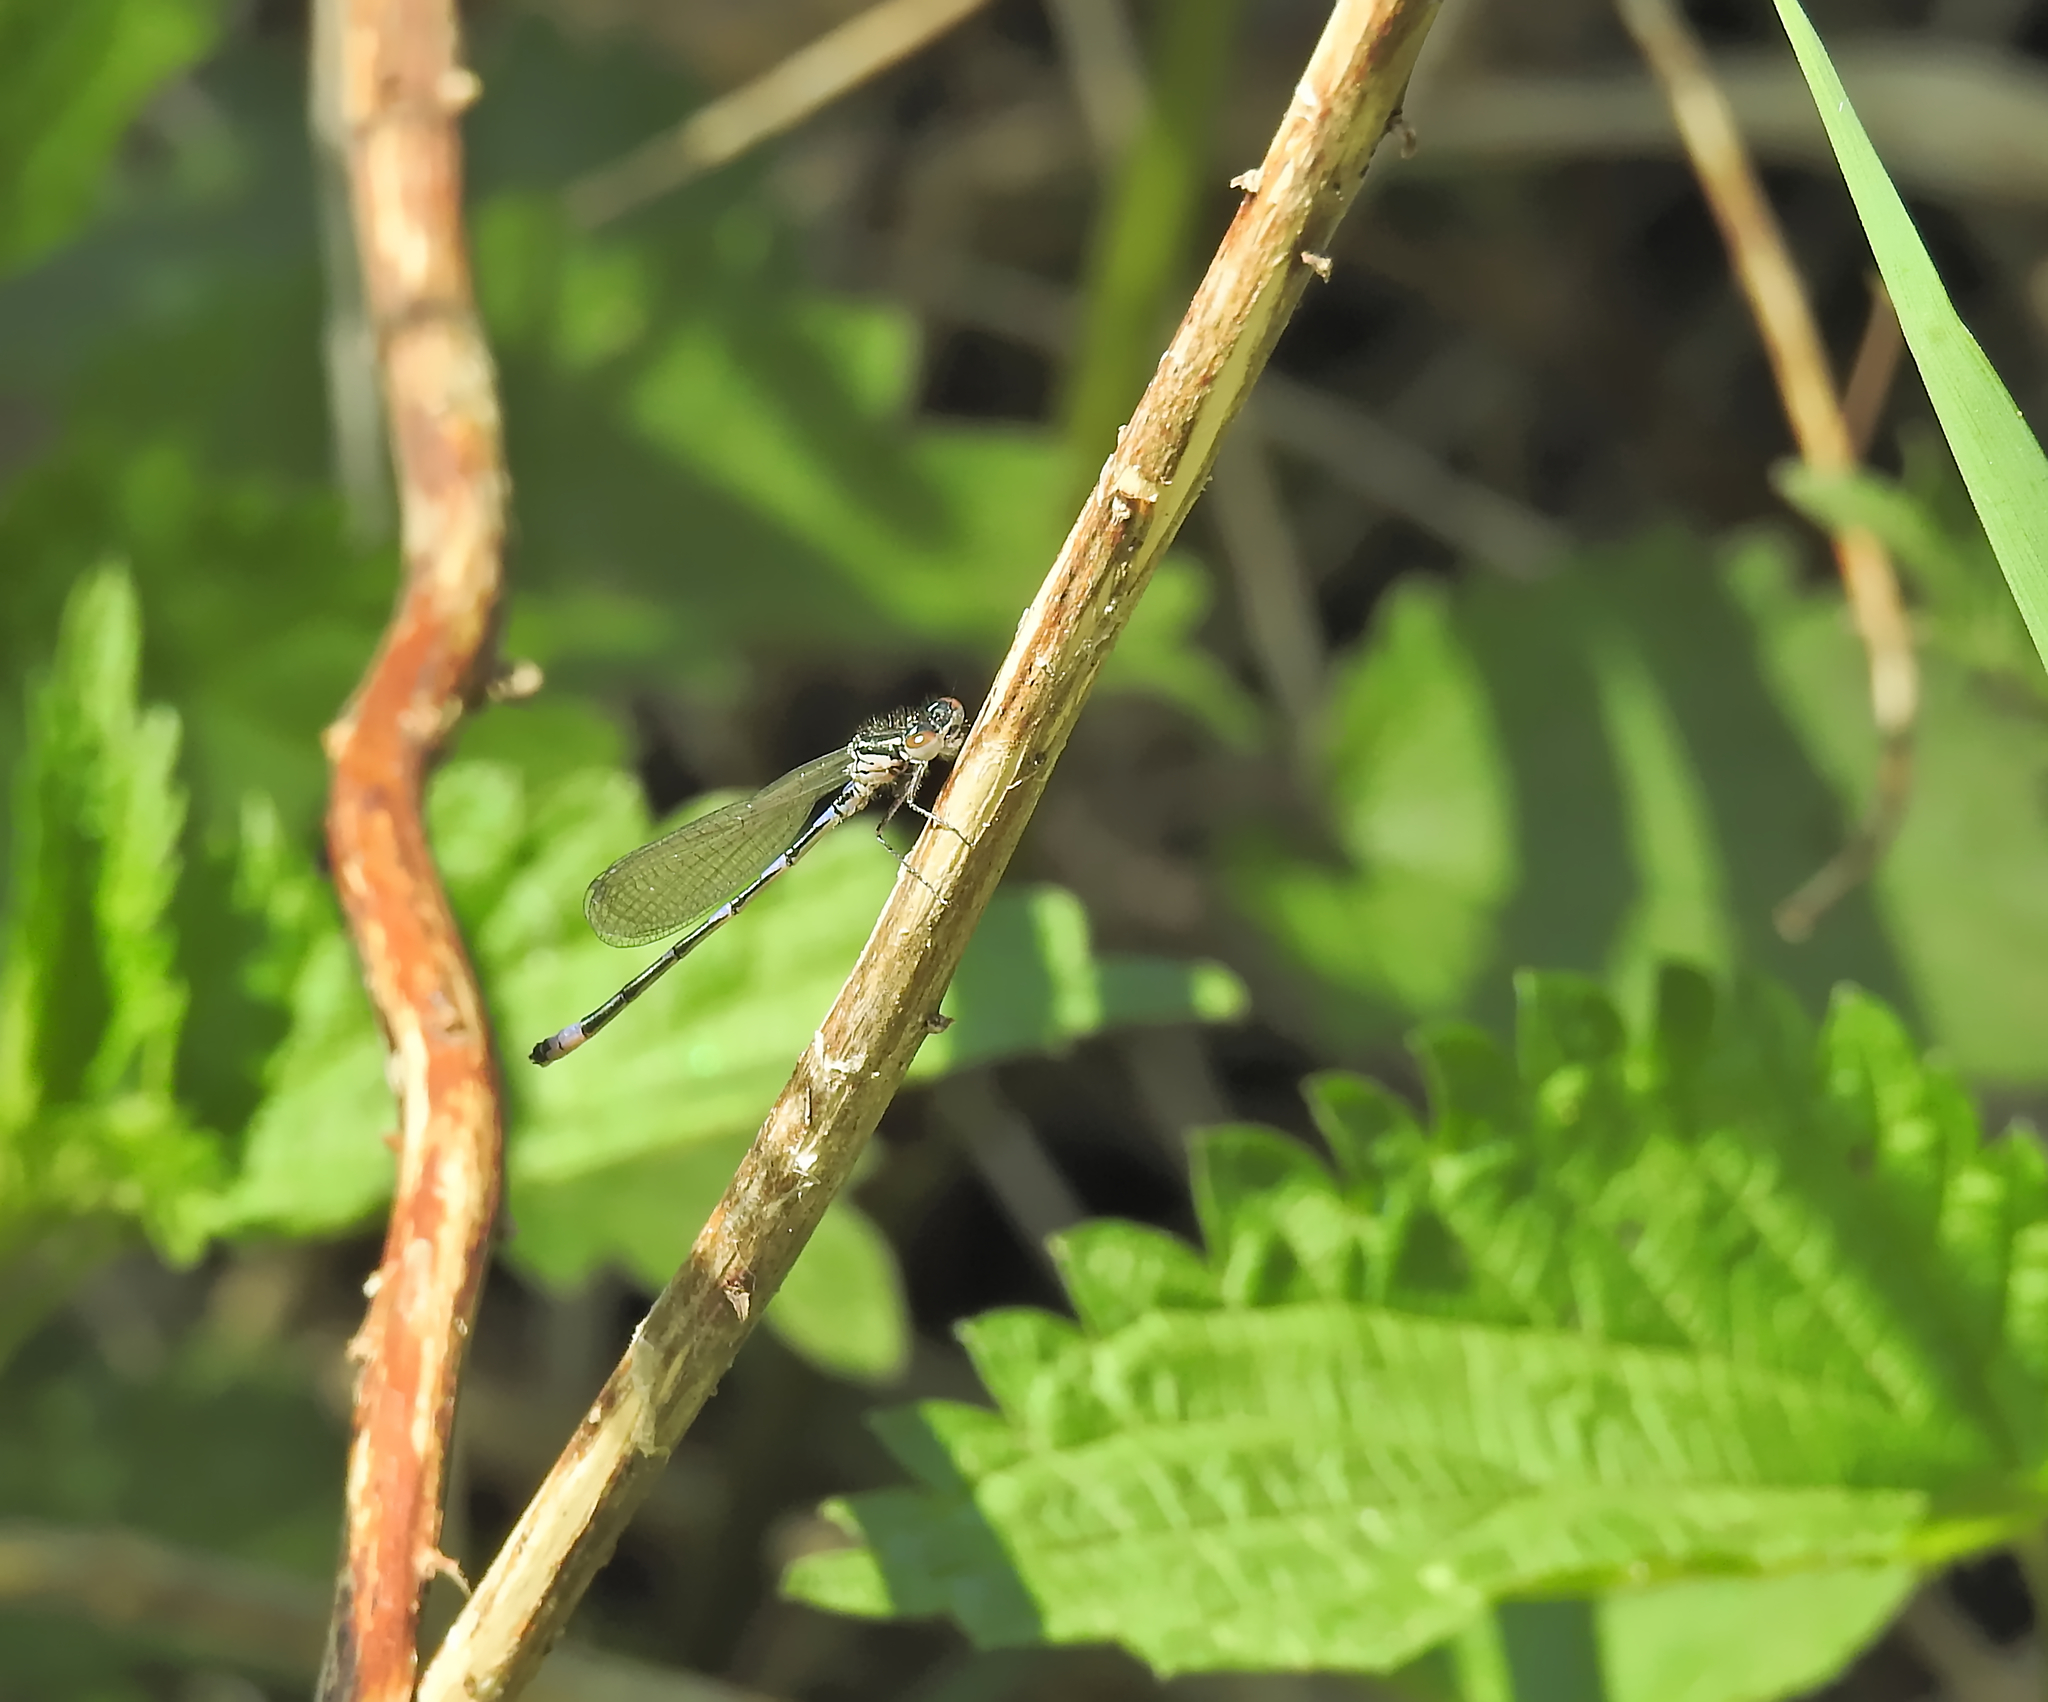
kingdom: Animalia
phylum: Arthropoda
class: Insecta
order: Odonata
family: Coenagrionidae
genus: Coenagrion
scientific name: Coenagrion pulchellum
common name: Variable bluet
